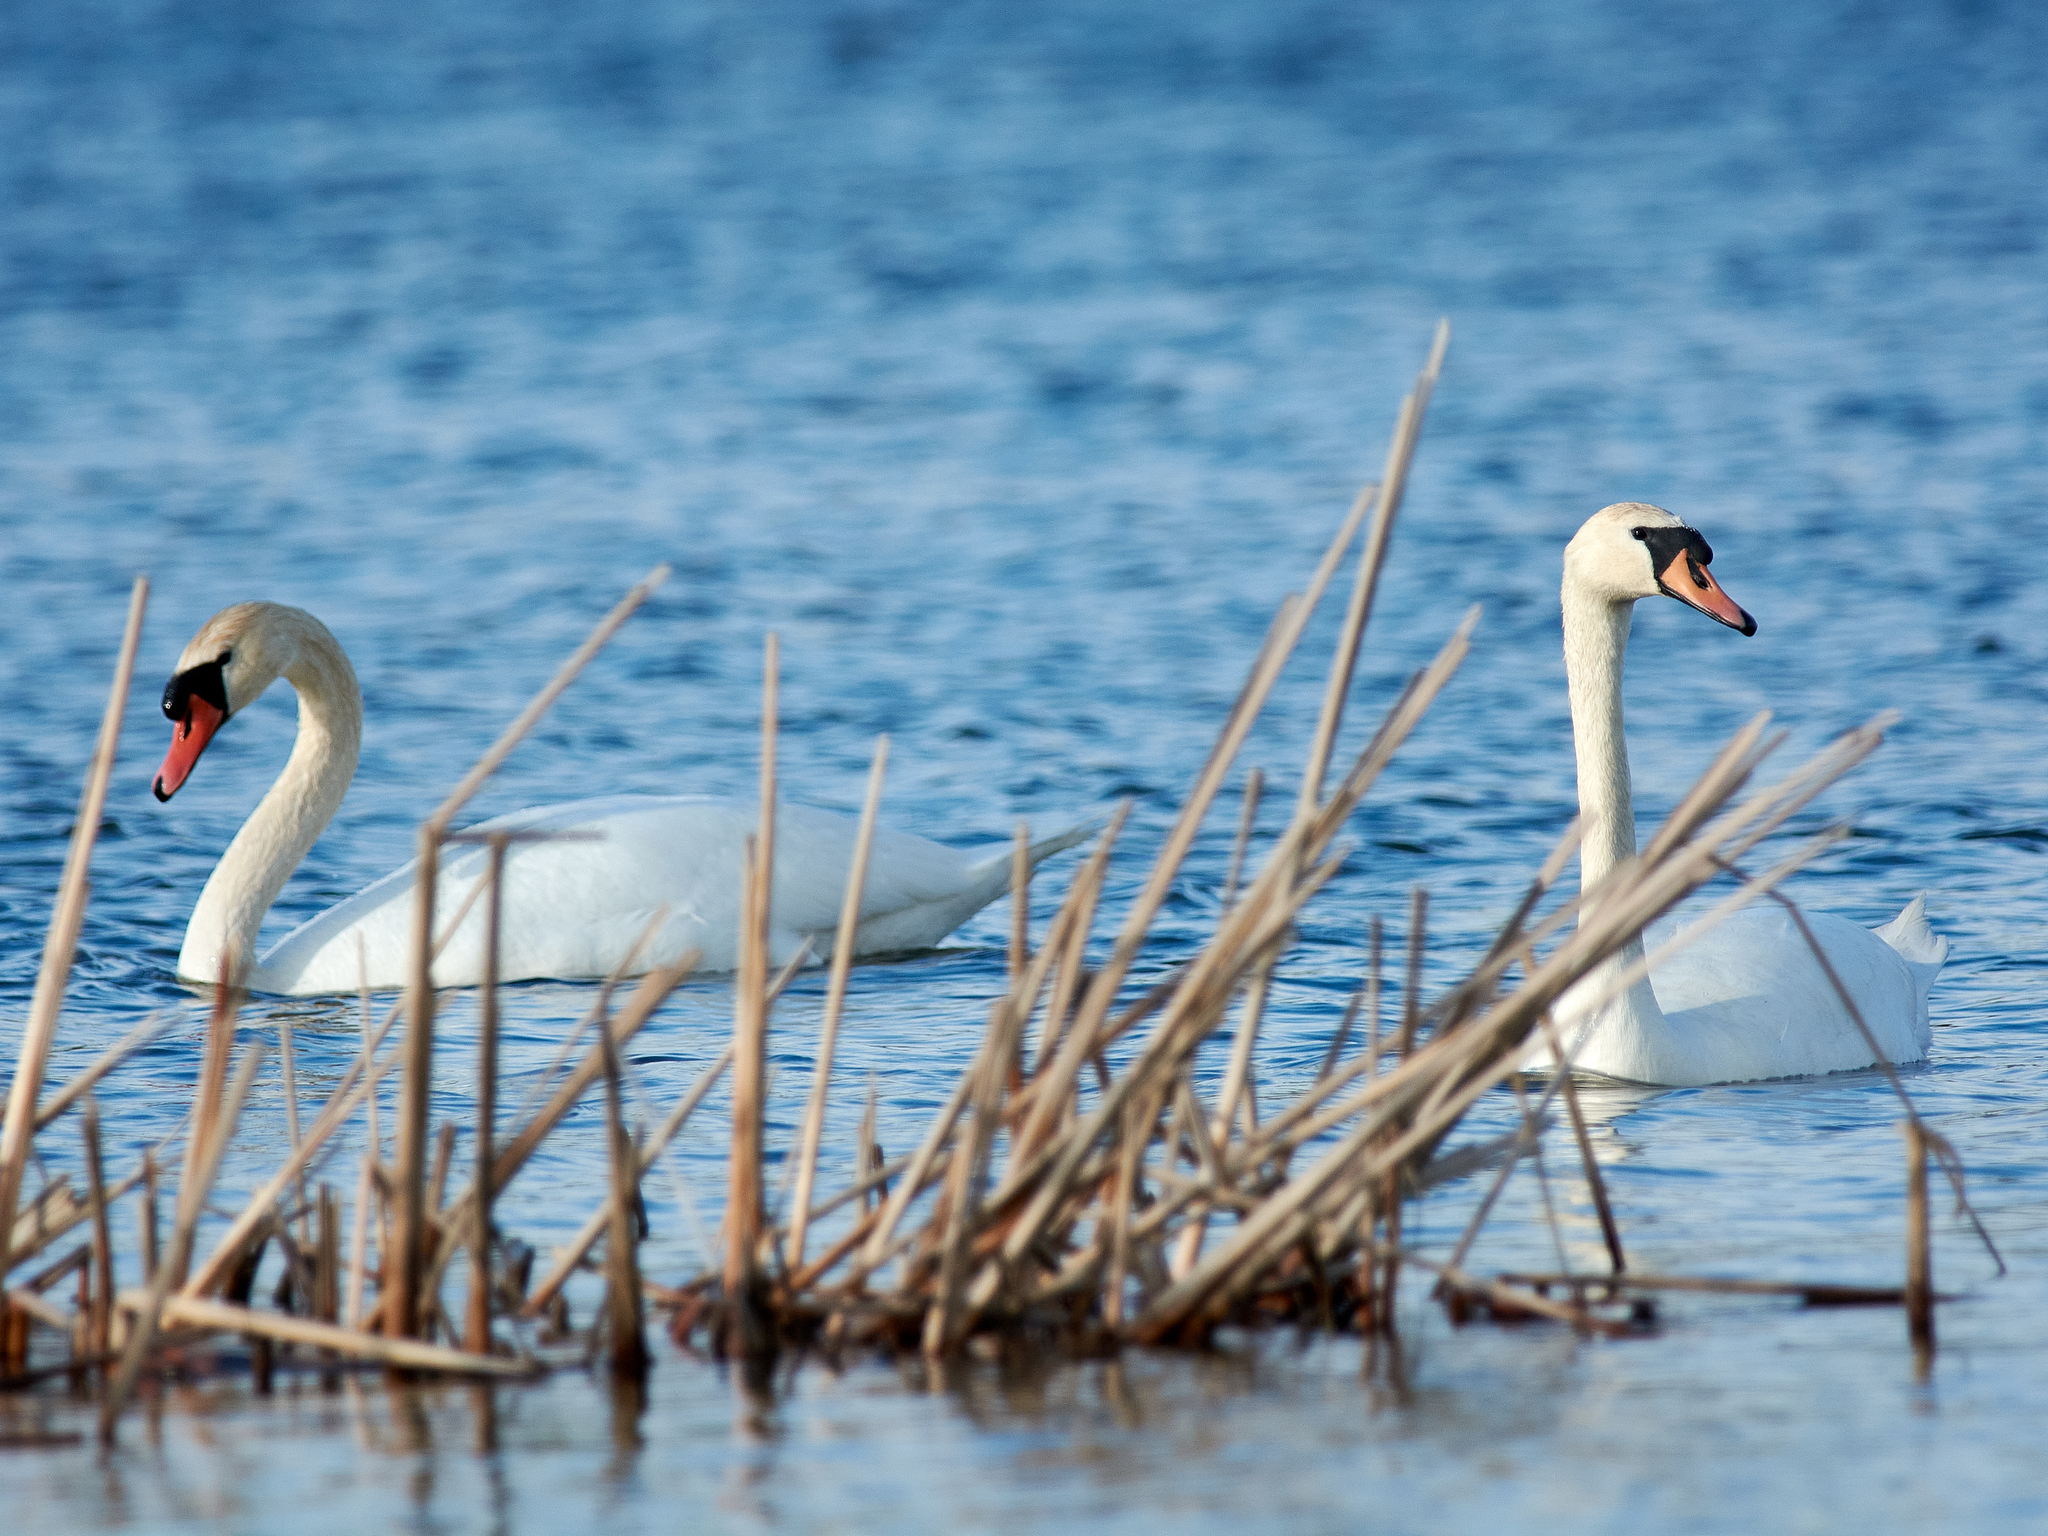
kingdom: Animalia
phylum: Chordata
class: Aves
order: Anseriformes
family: Anatidae
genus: Cygnus
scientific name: Cygnus olor
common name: Mute swan
